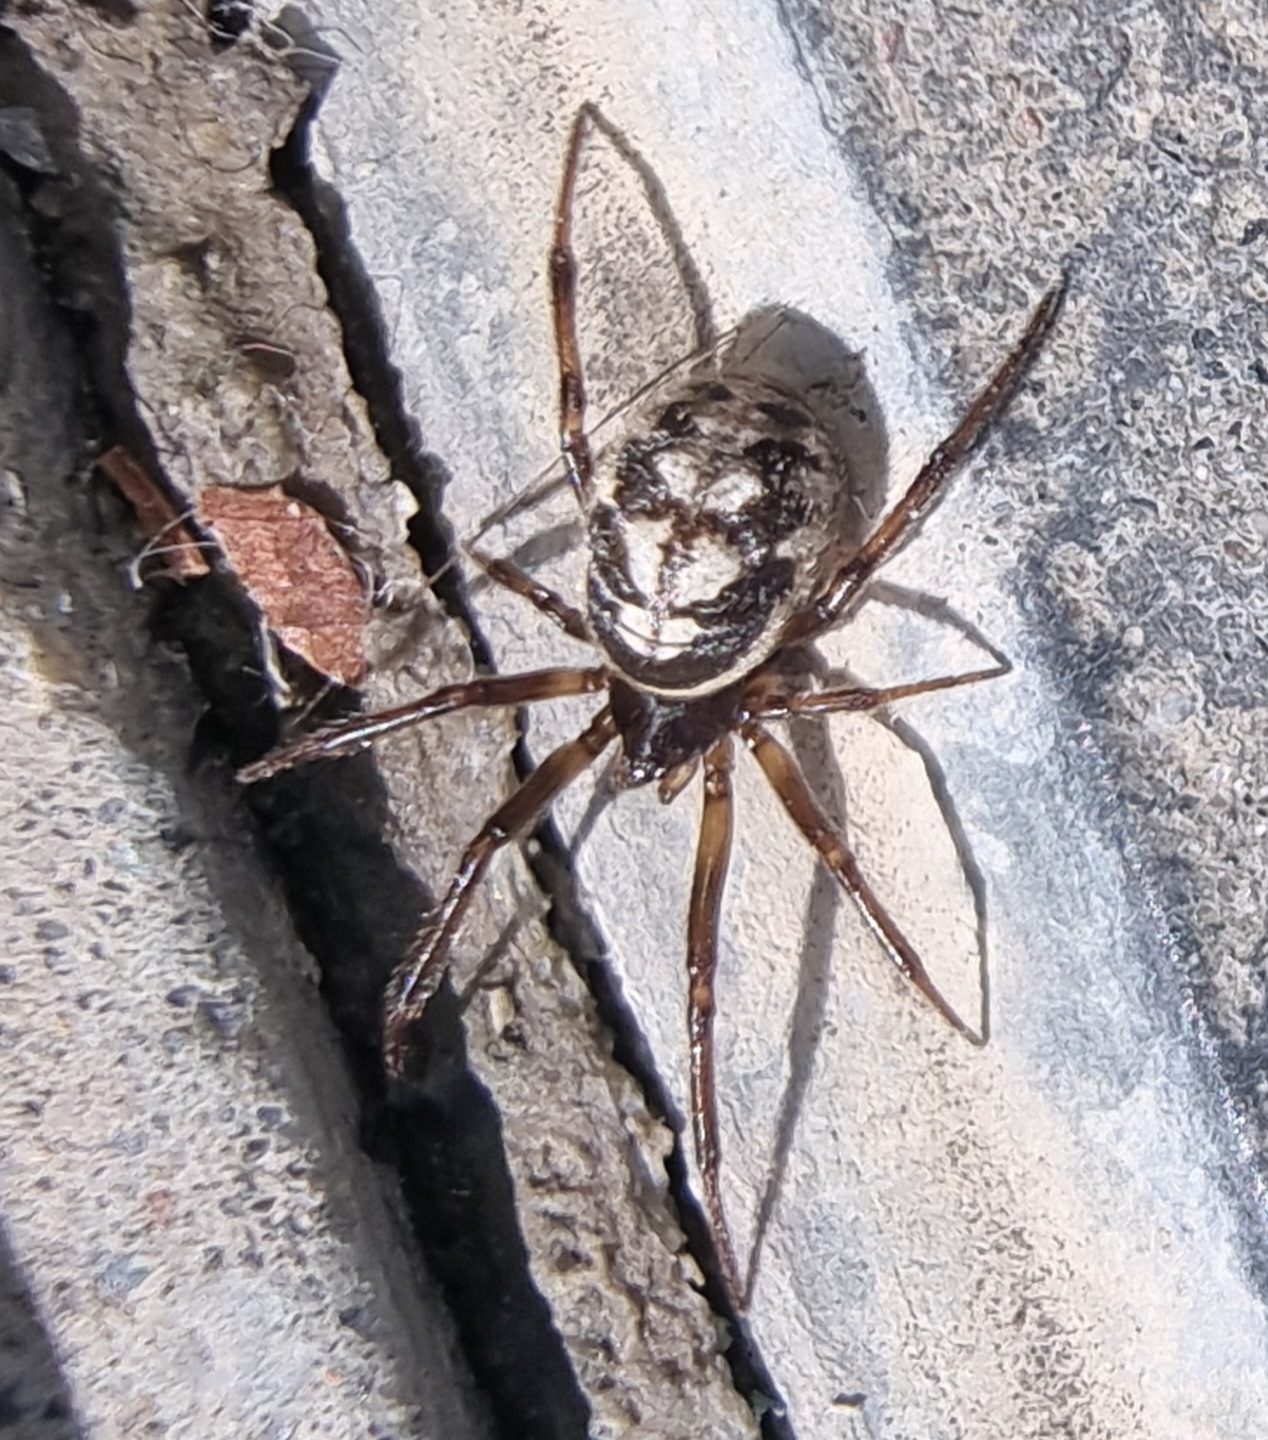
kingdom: Animalia
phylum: Arthropoda
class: Arachnida
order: Araneae
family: Theridiidae
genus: Steatoda
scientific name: Steatoda albomaculata
